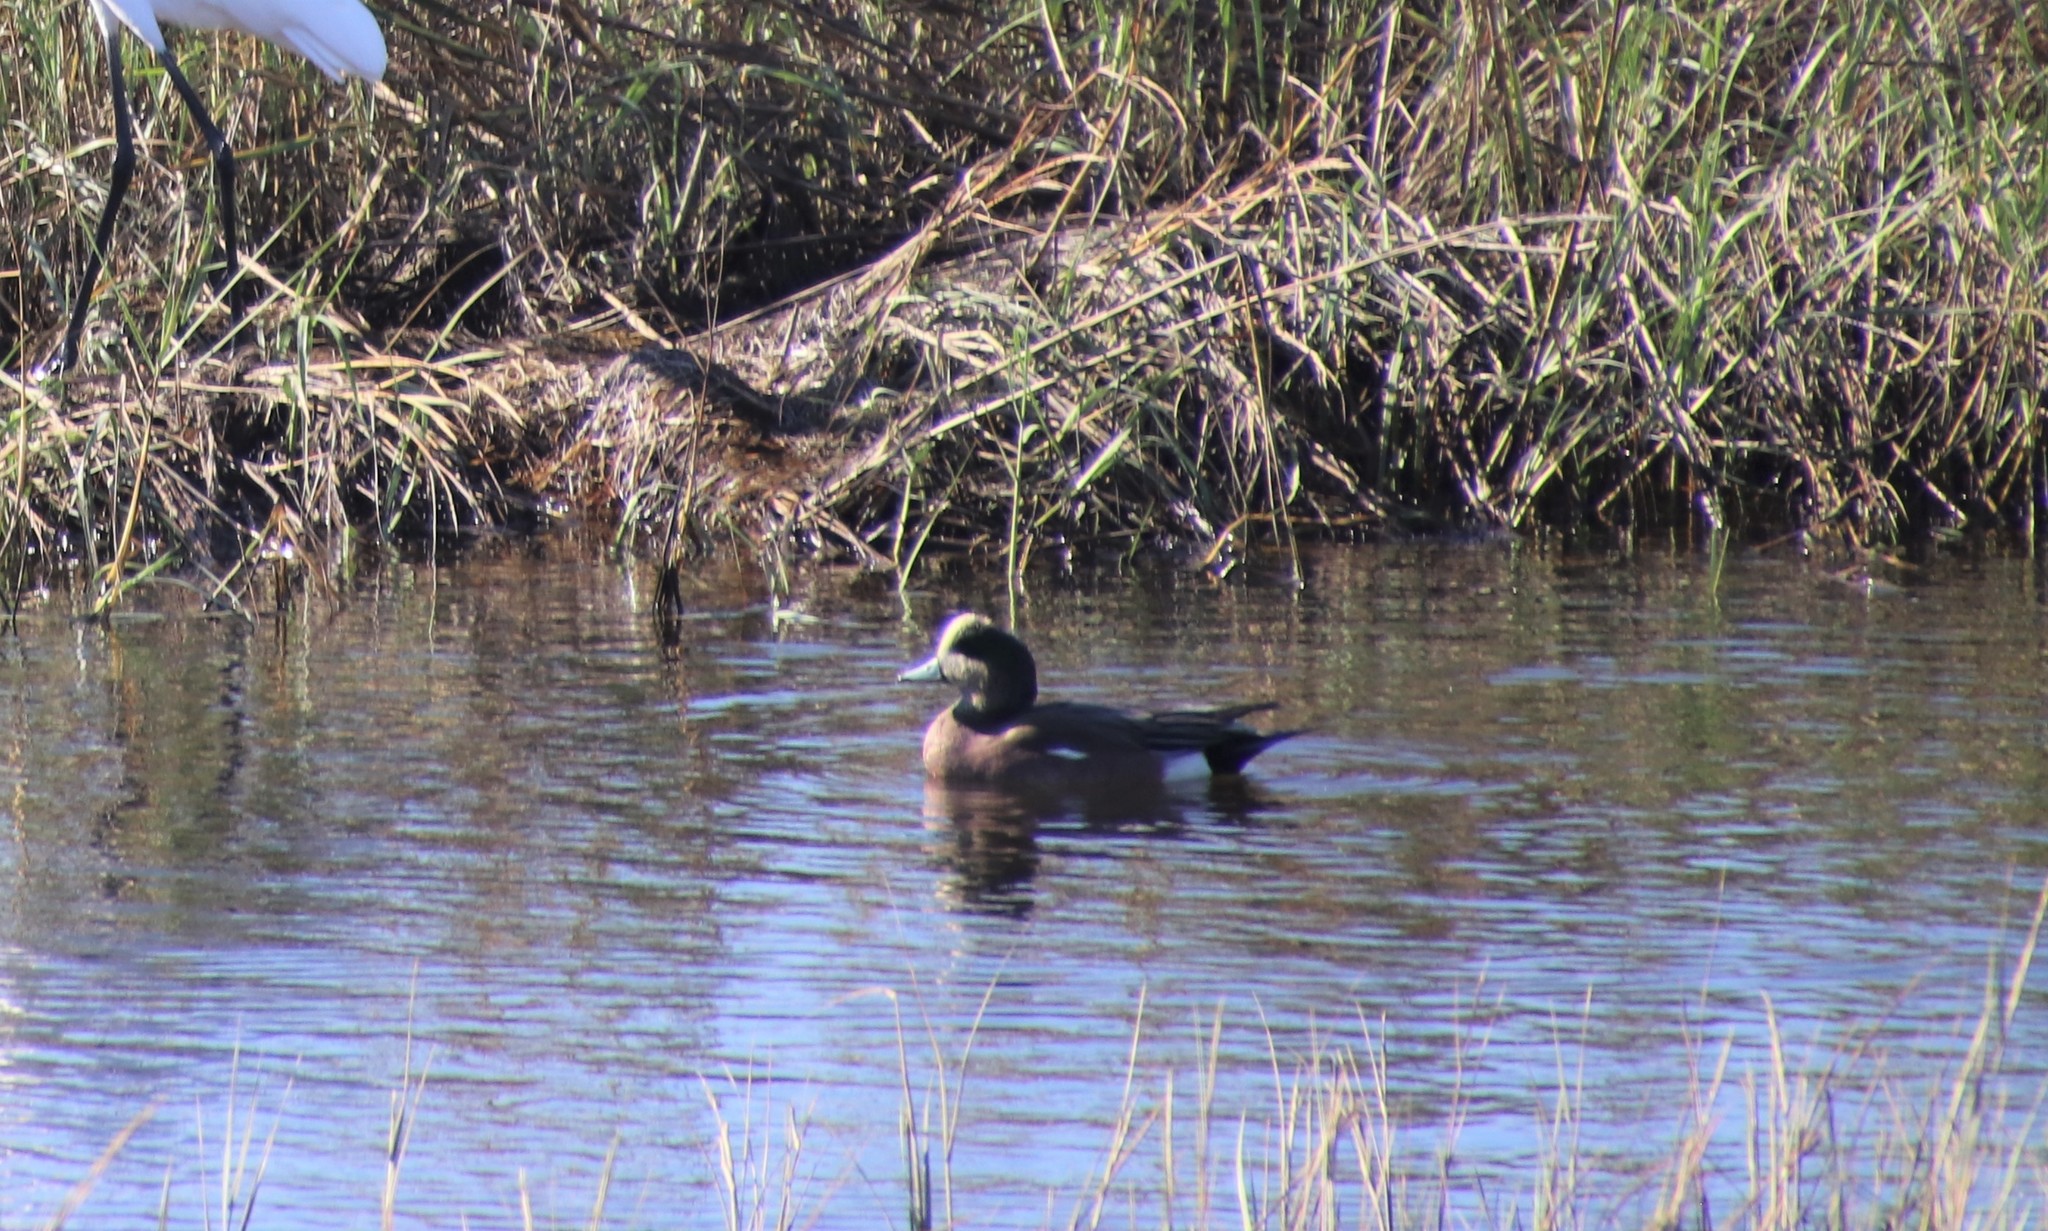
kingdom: Animalia
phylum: Chordata
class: Aves
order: Anseriformes
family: Anatidae
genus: Mareca
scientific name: Mareca americana
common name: American wigeon
